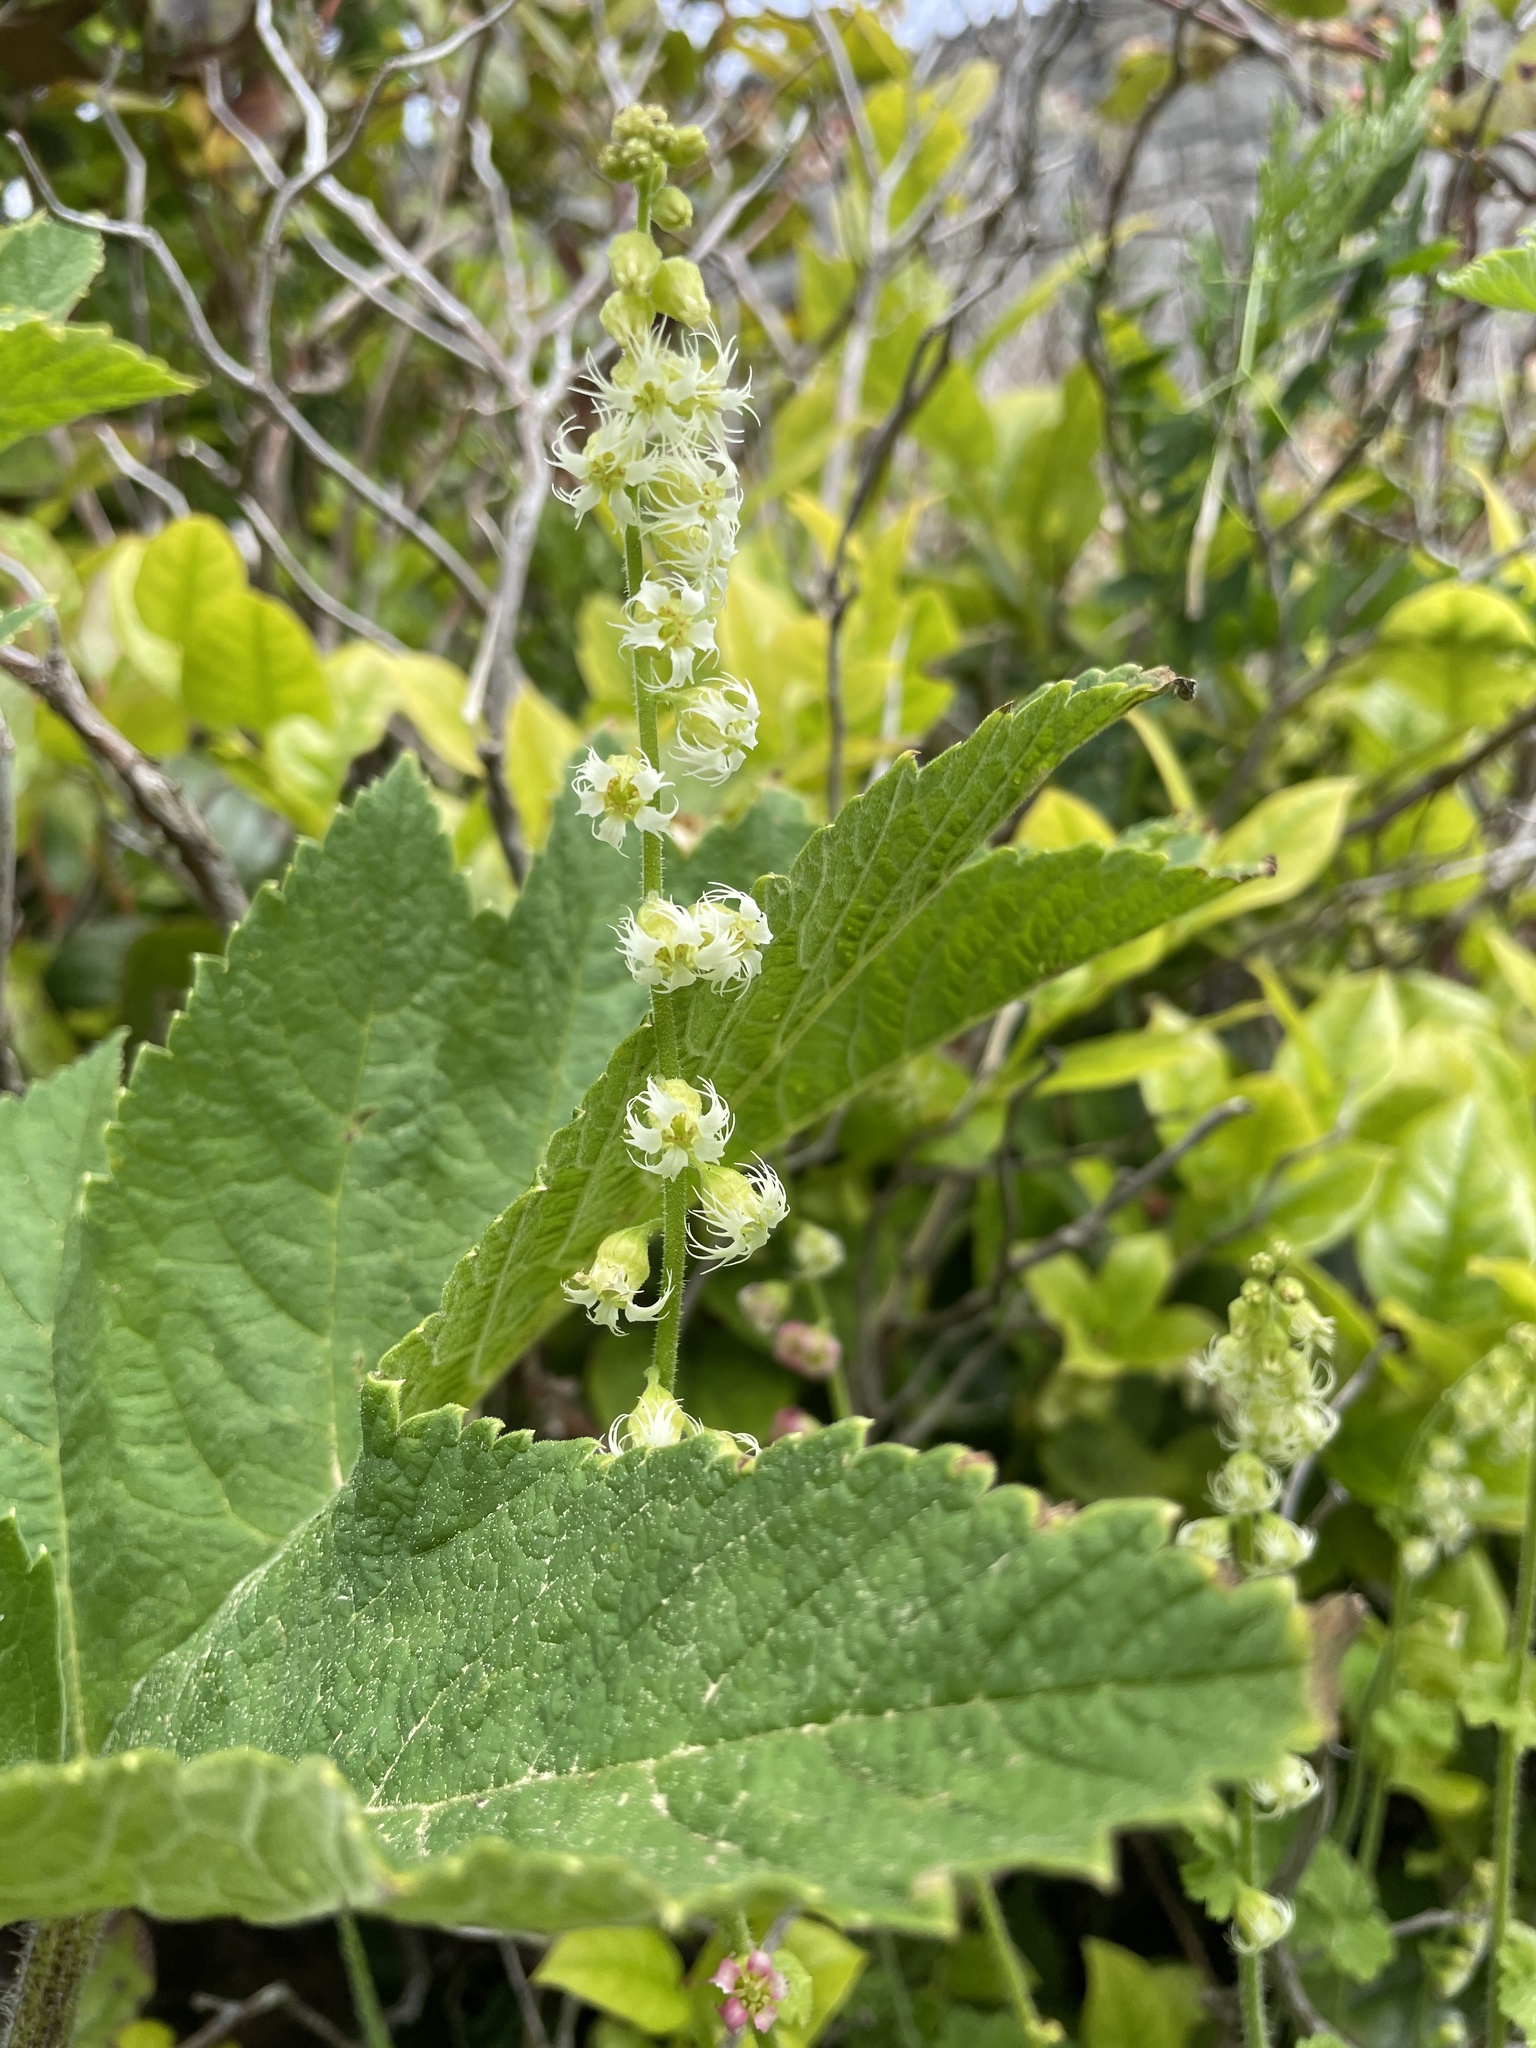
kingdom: Plantae
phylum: Tracheophyta
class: Magnoliopsida
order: Saxifragales
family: Saxifragaceae
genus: Tellima
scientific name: Tellima grandiflora
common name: Fringecups
